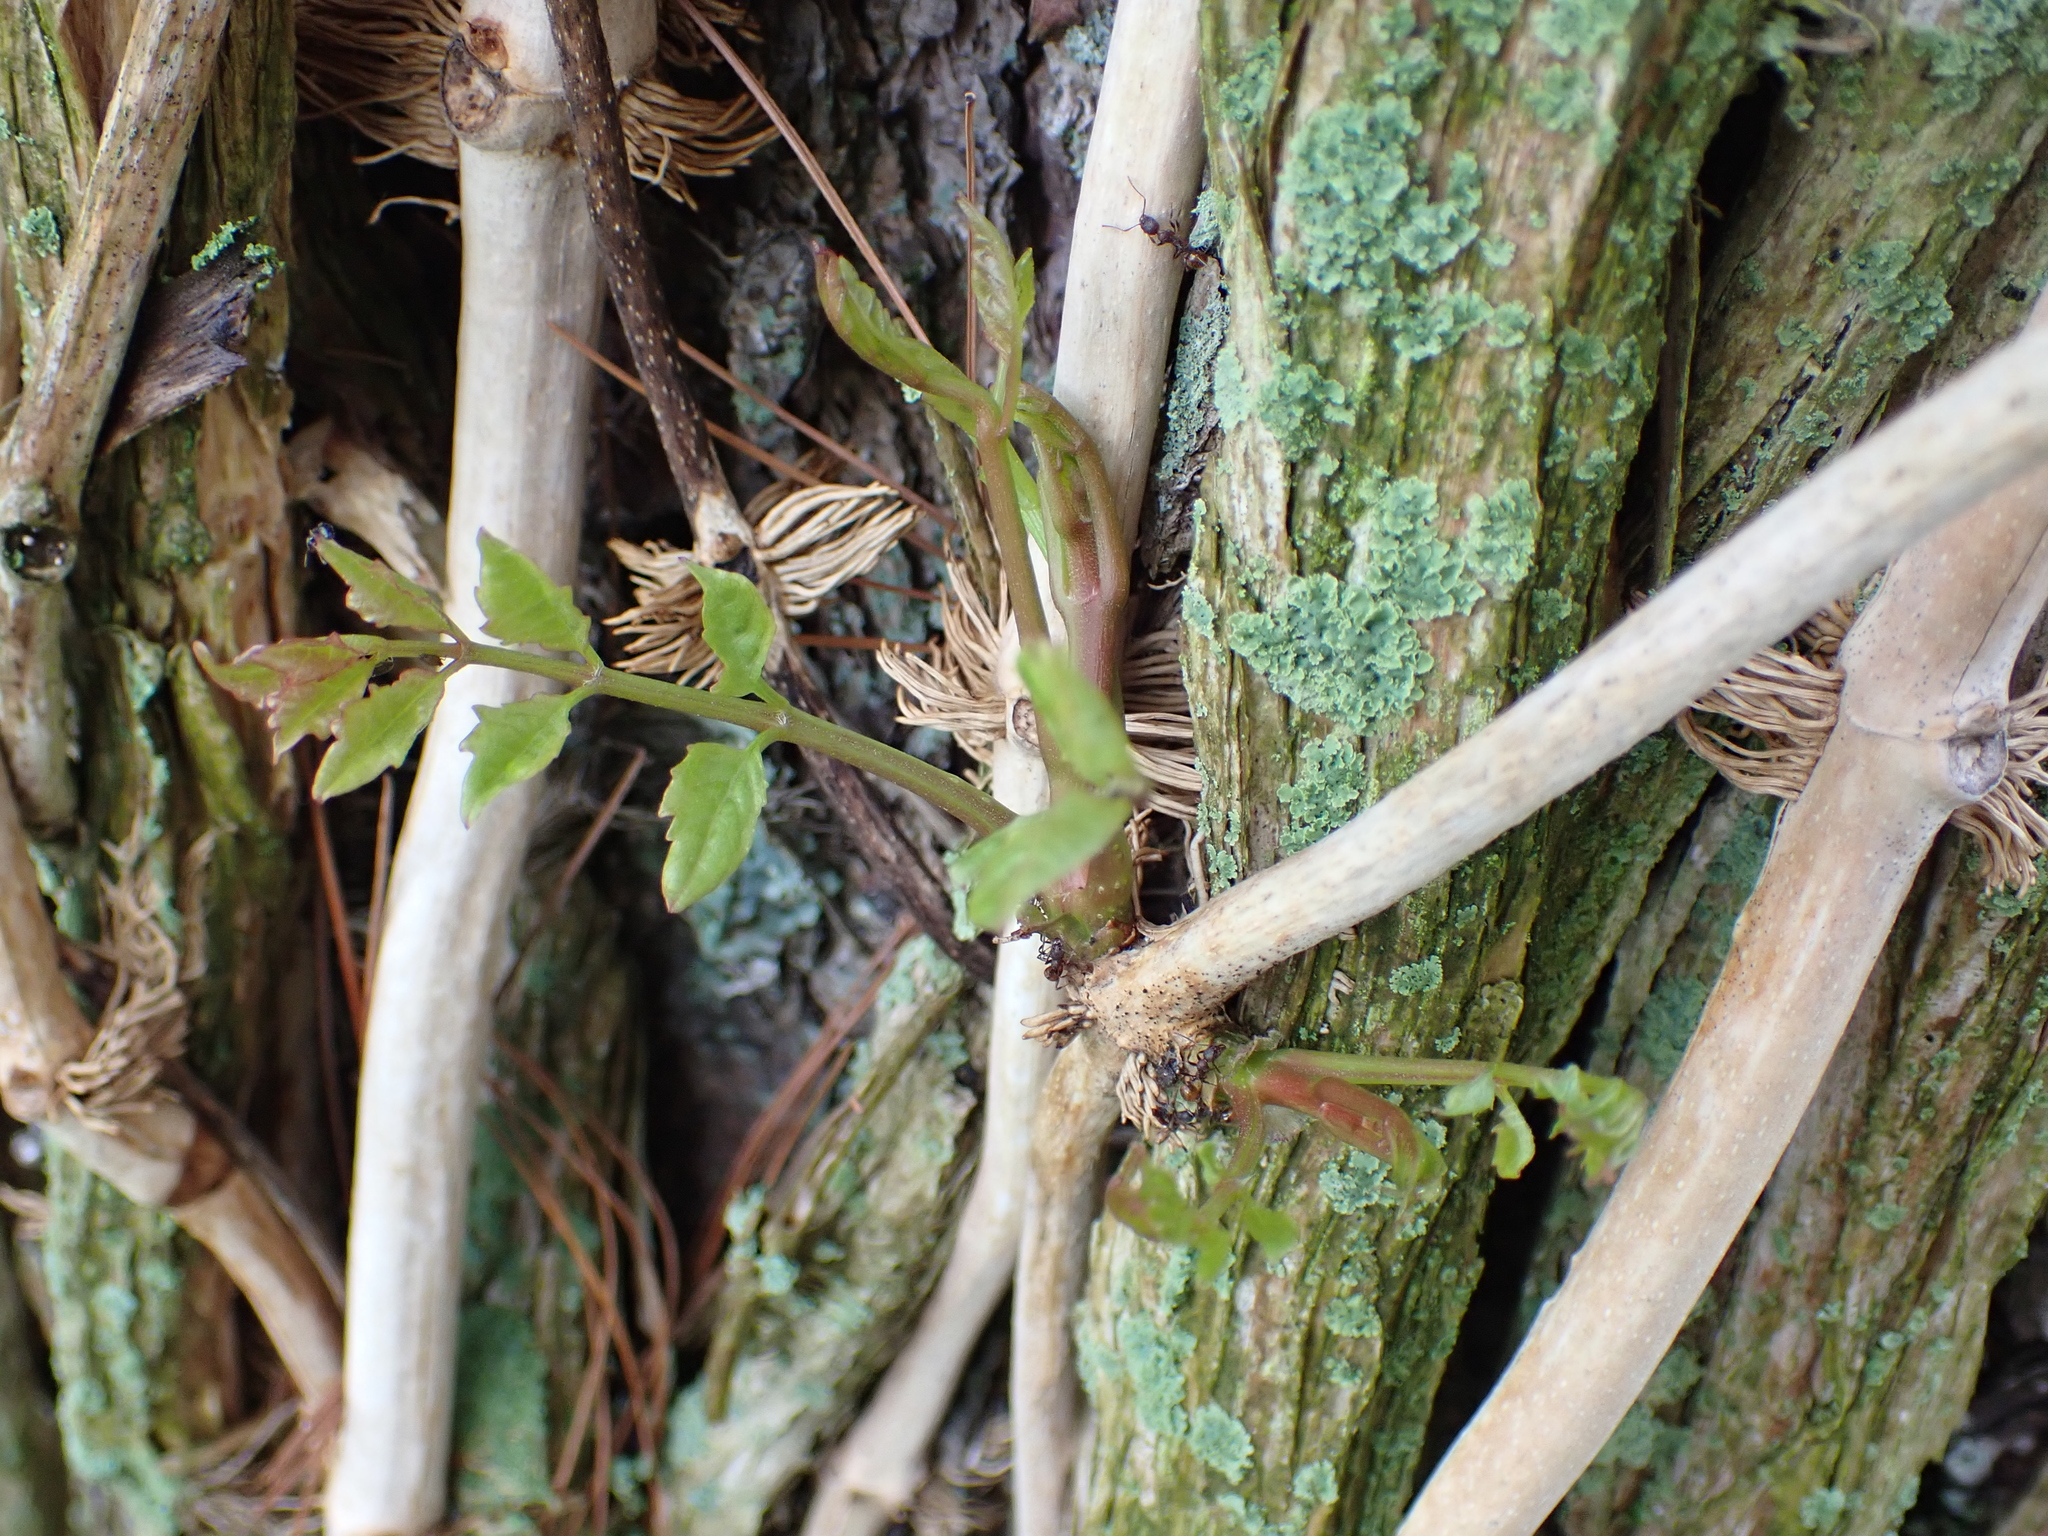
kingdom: Plantae
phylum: Tracheophyta
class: Magnoliopsida
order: Lamiales
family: Bignoniaceae
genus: Campsis
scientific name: Campsis radicans
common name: Trumpet-creeper
